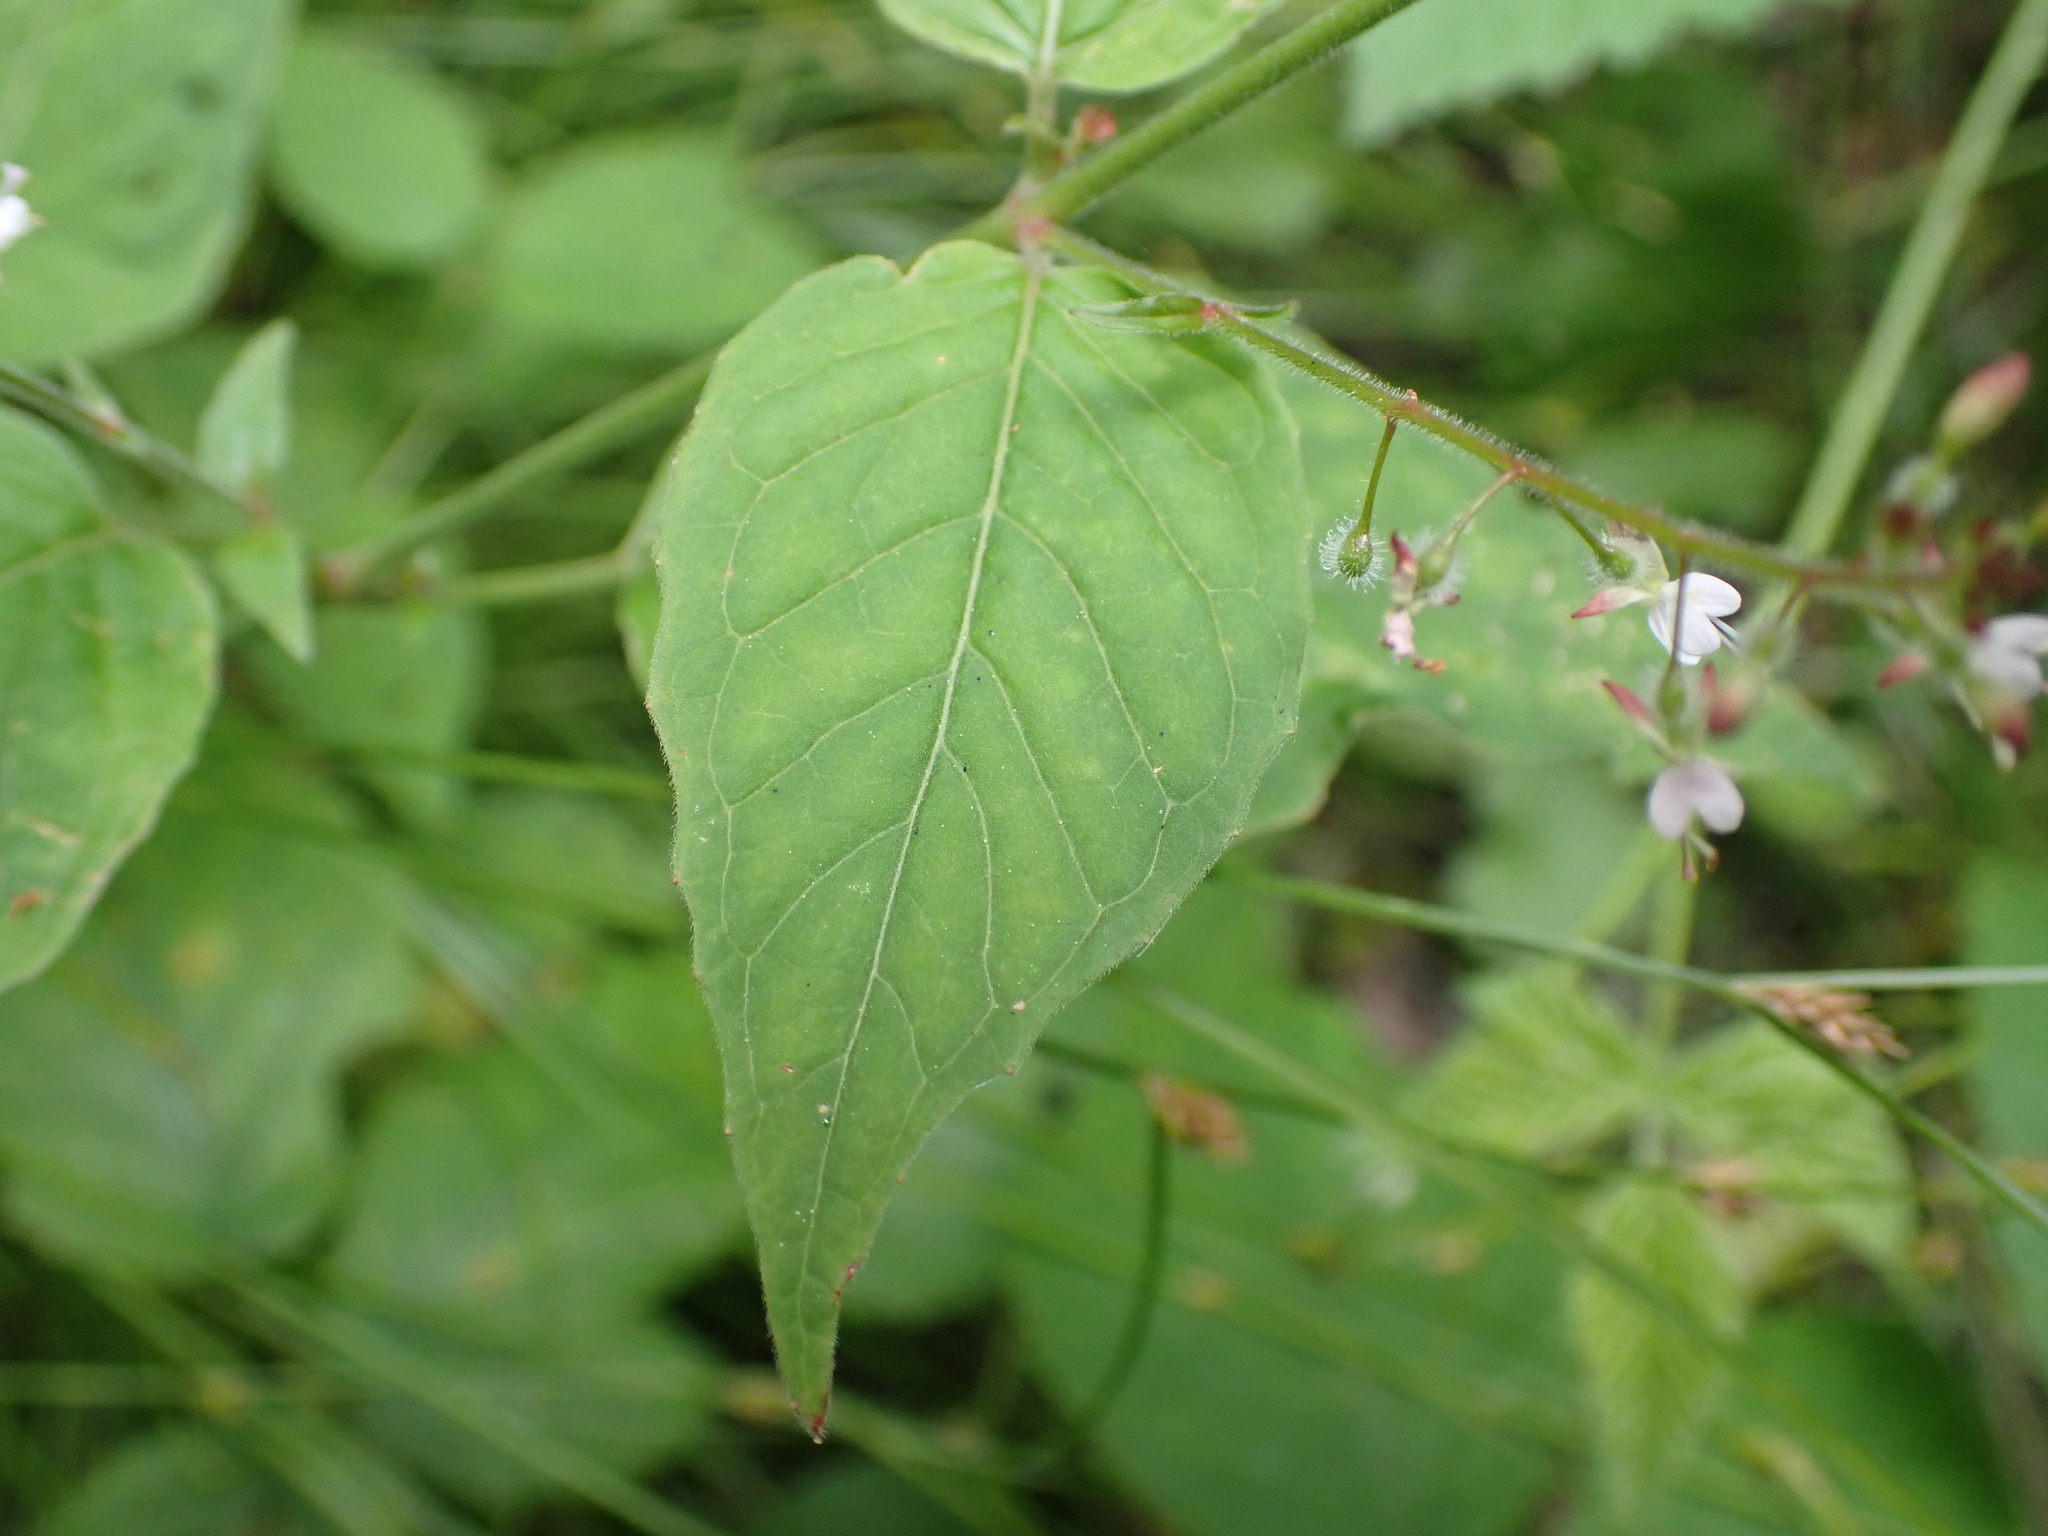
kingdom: Plantae
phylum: Tracheophyta
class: Magnoliopsida
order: Myrtales
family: Onagraceae
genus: Circaea
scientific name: Circaea lutetiana
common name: Enchanter's-nightshade
